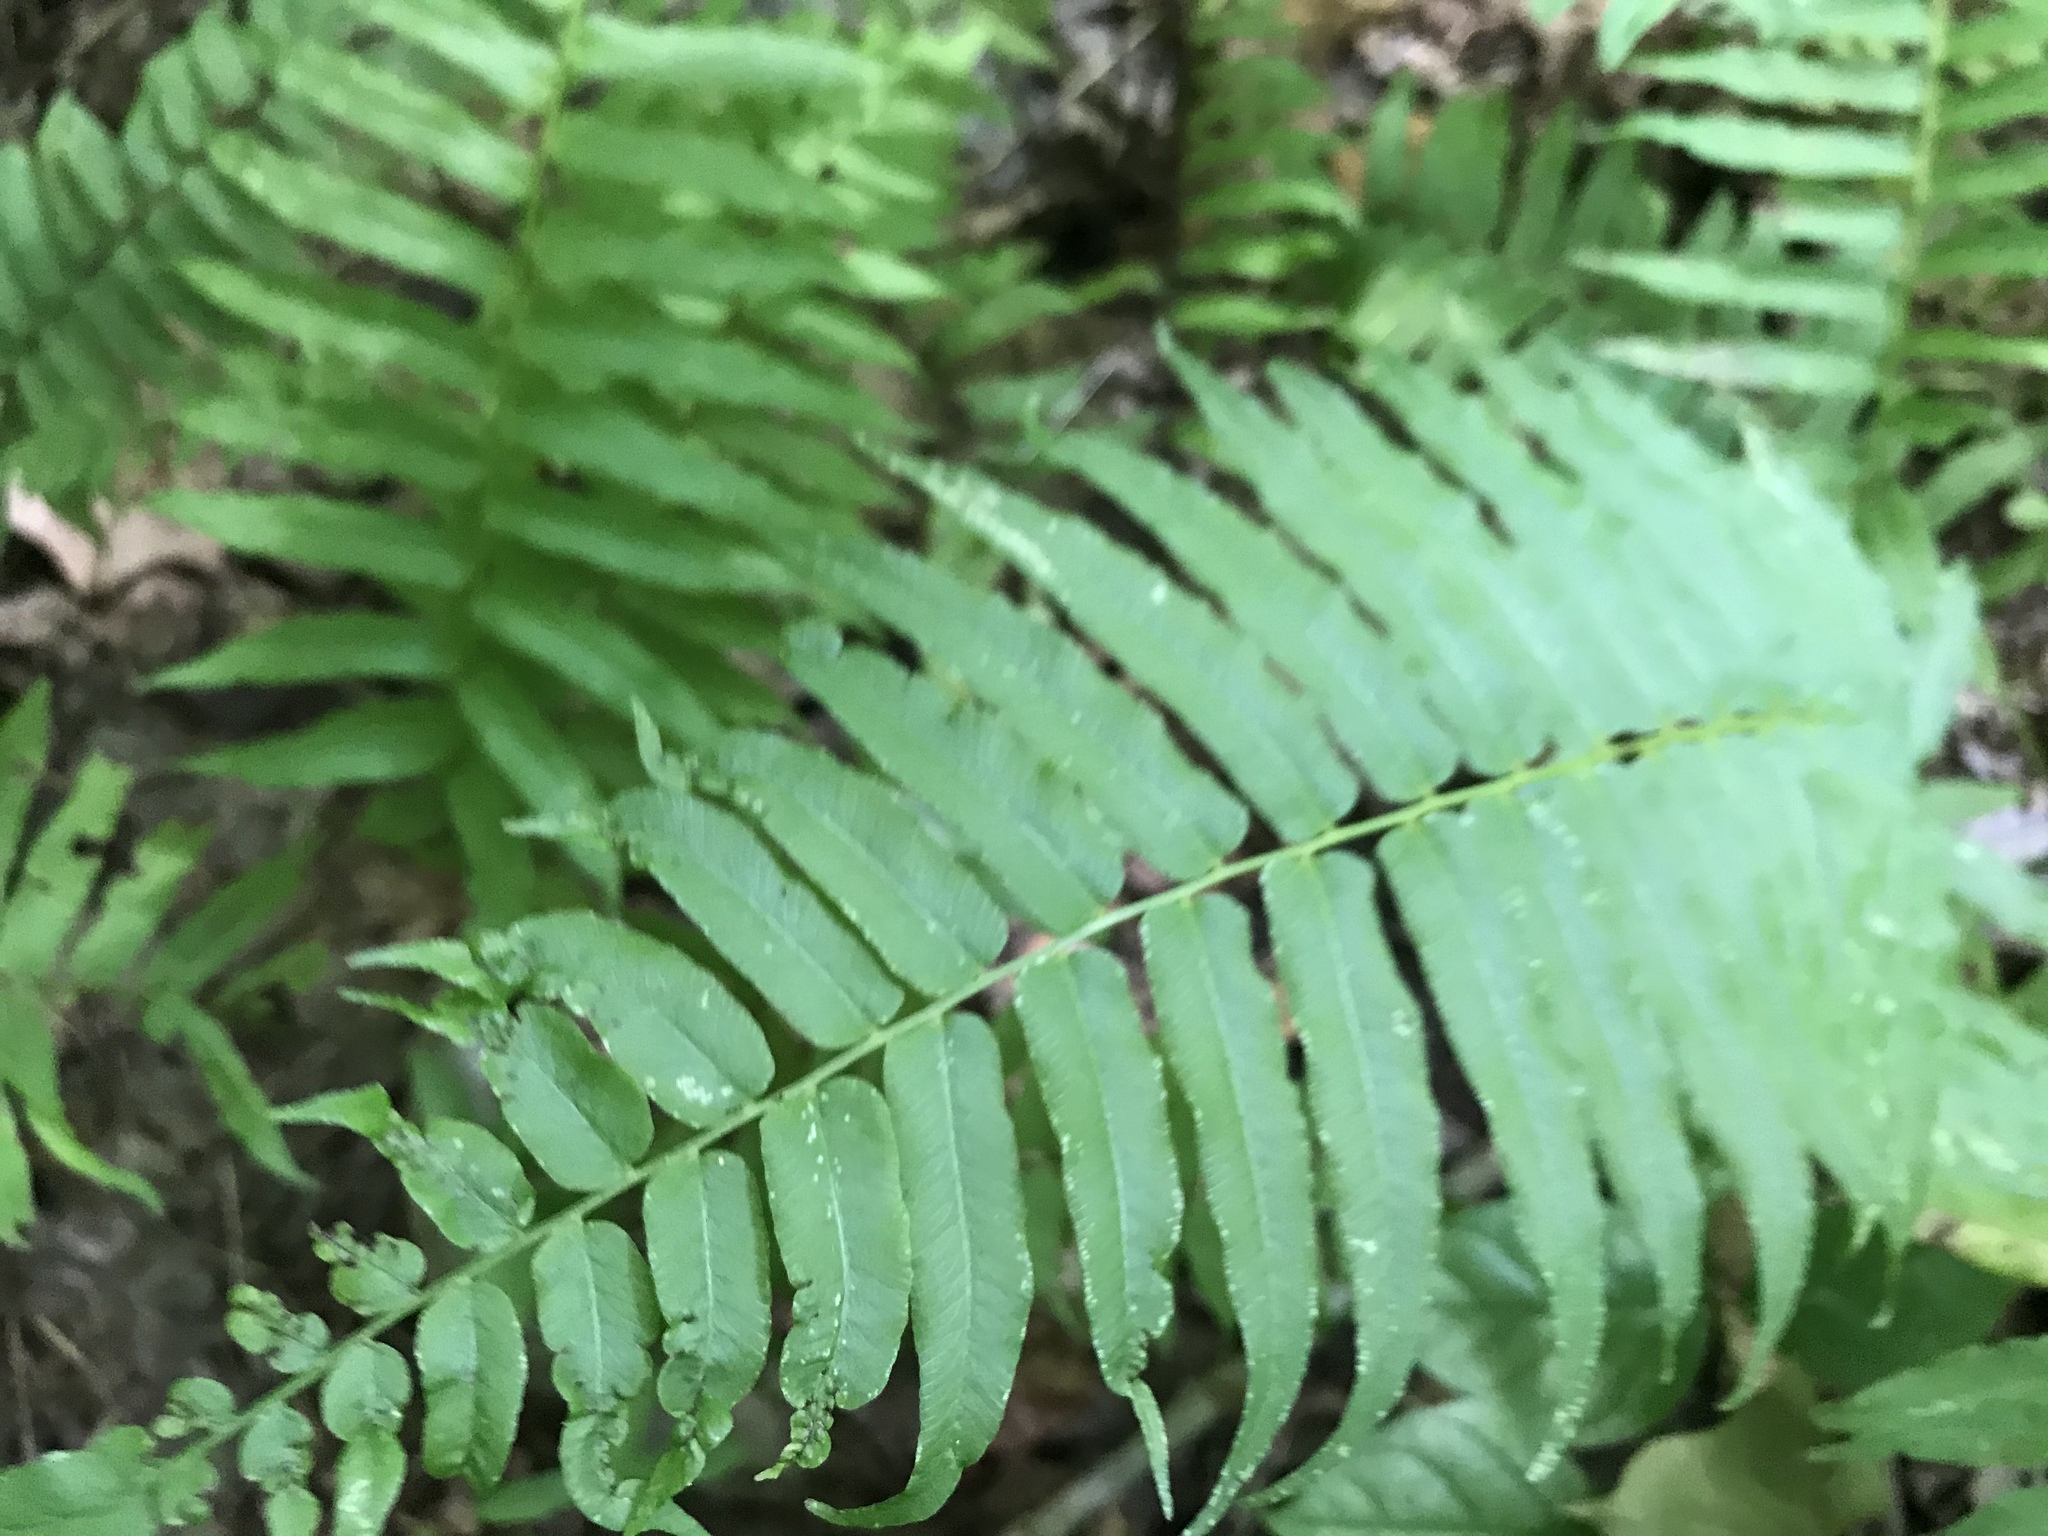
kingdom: Plantae
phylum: Tracheophyta
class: Polypodiopsida
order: Polypodiales
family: Diplaziopsidaceae
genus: Homalosorus
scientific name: Homalosorus pycnocarpos
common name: Glade fern
